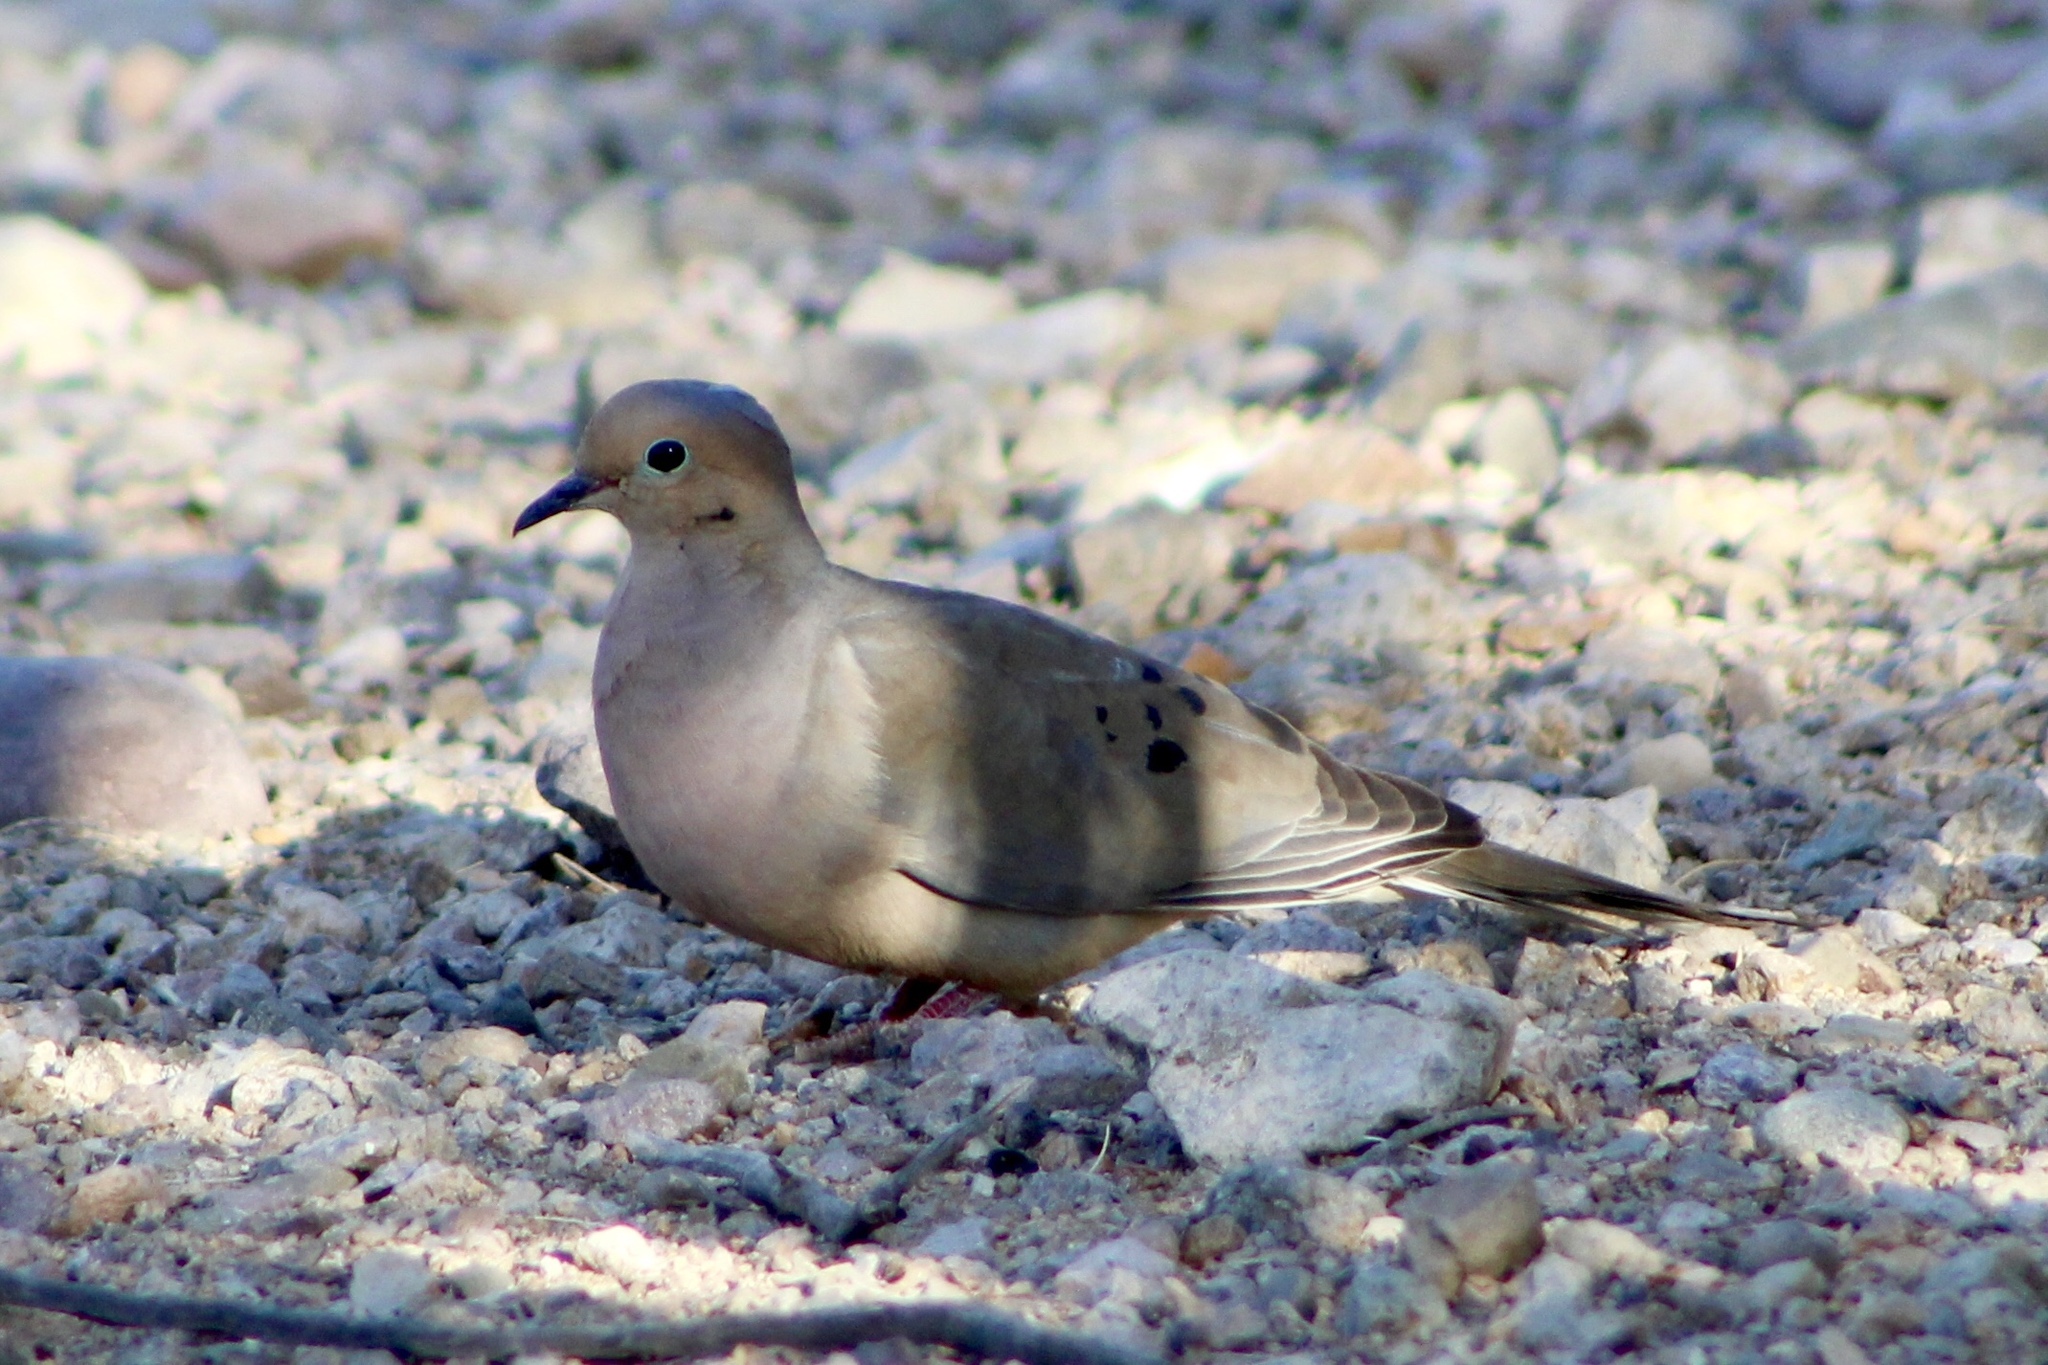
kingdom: Animalia
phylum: Chordata
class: Aves
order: Columbiformes
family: Columbidae
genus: Zenaida
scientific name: Zenaida macroura
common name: Mourning dove
